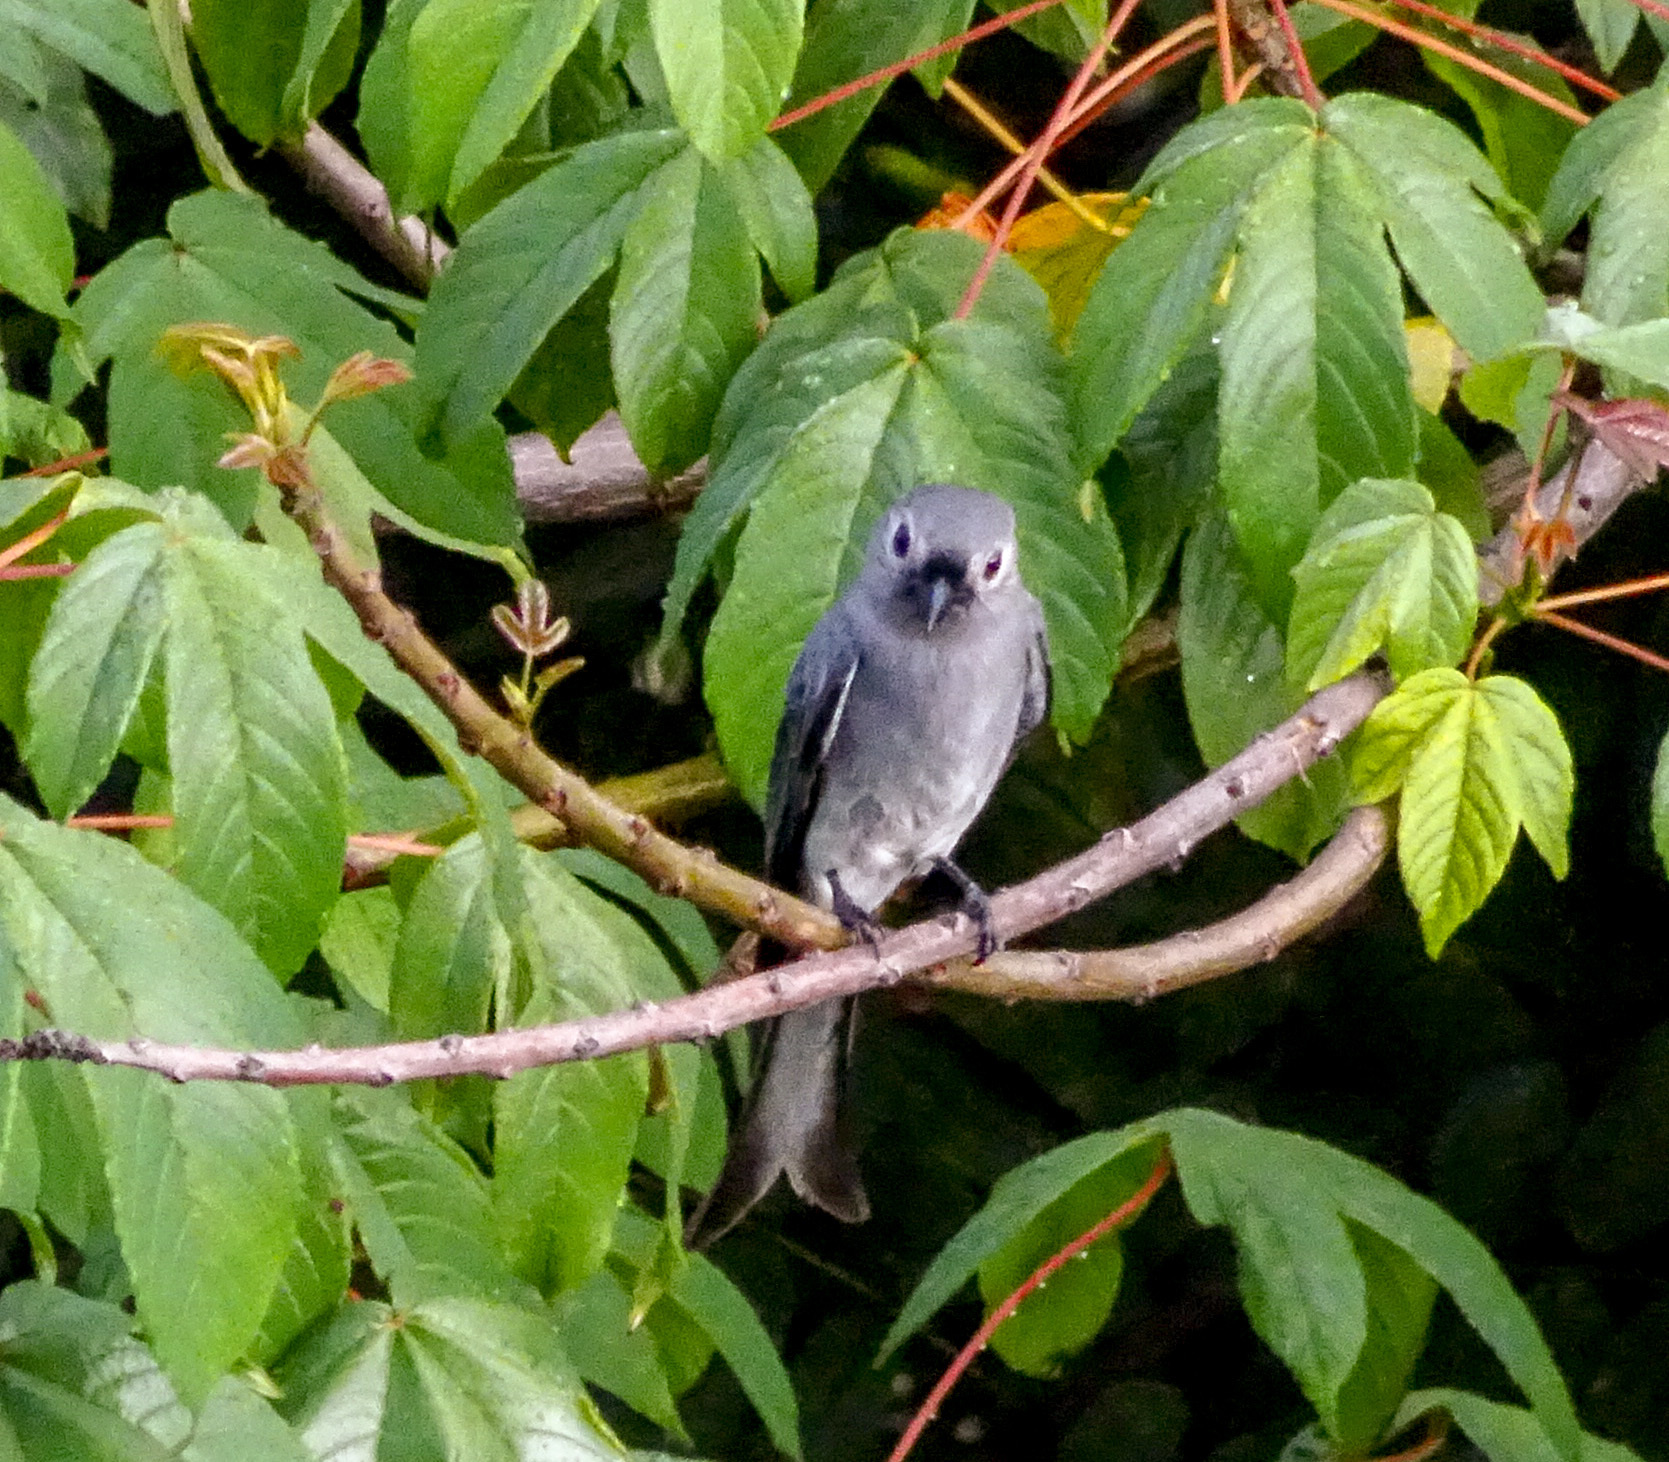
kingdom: Animalia
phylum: Chordata
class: Aves
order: Passeriformes
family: Dicruridae
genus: Dicrurus
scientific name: Dicrurus leucophaeus
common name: Ashy drongo
